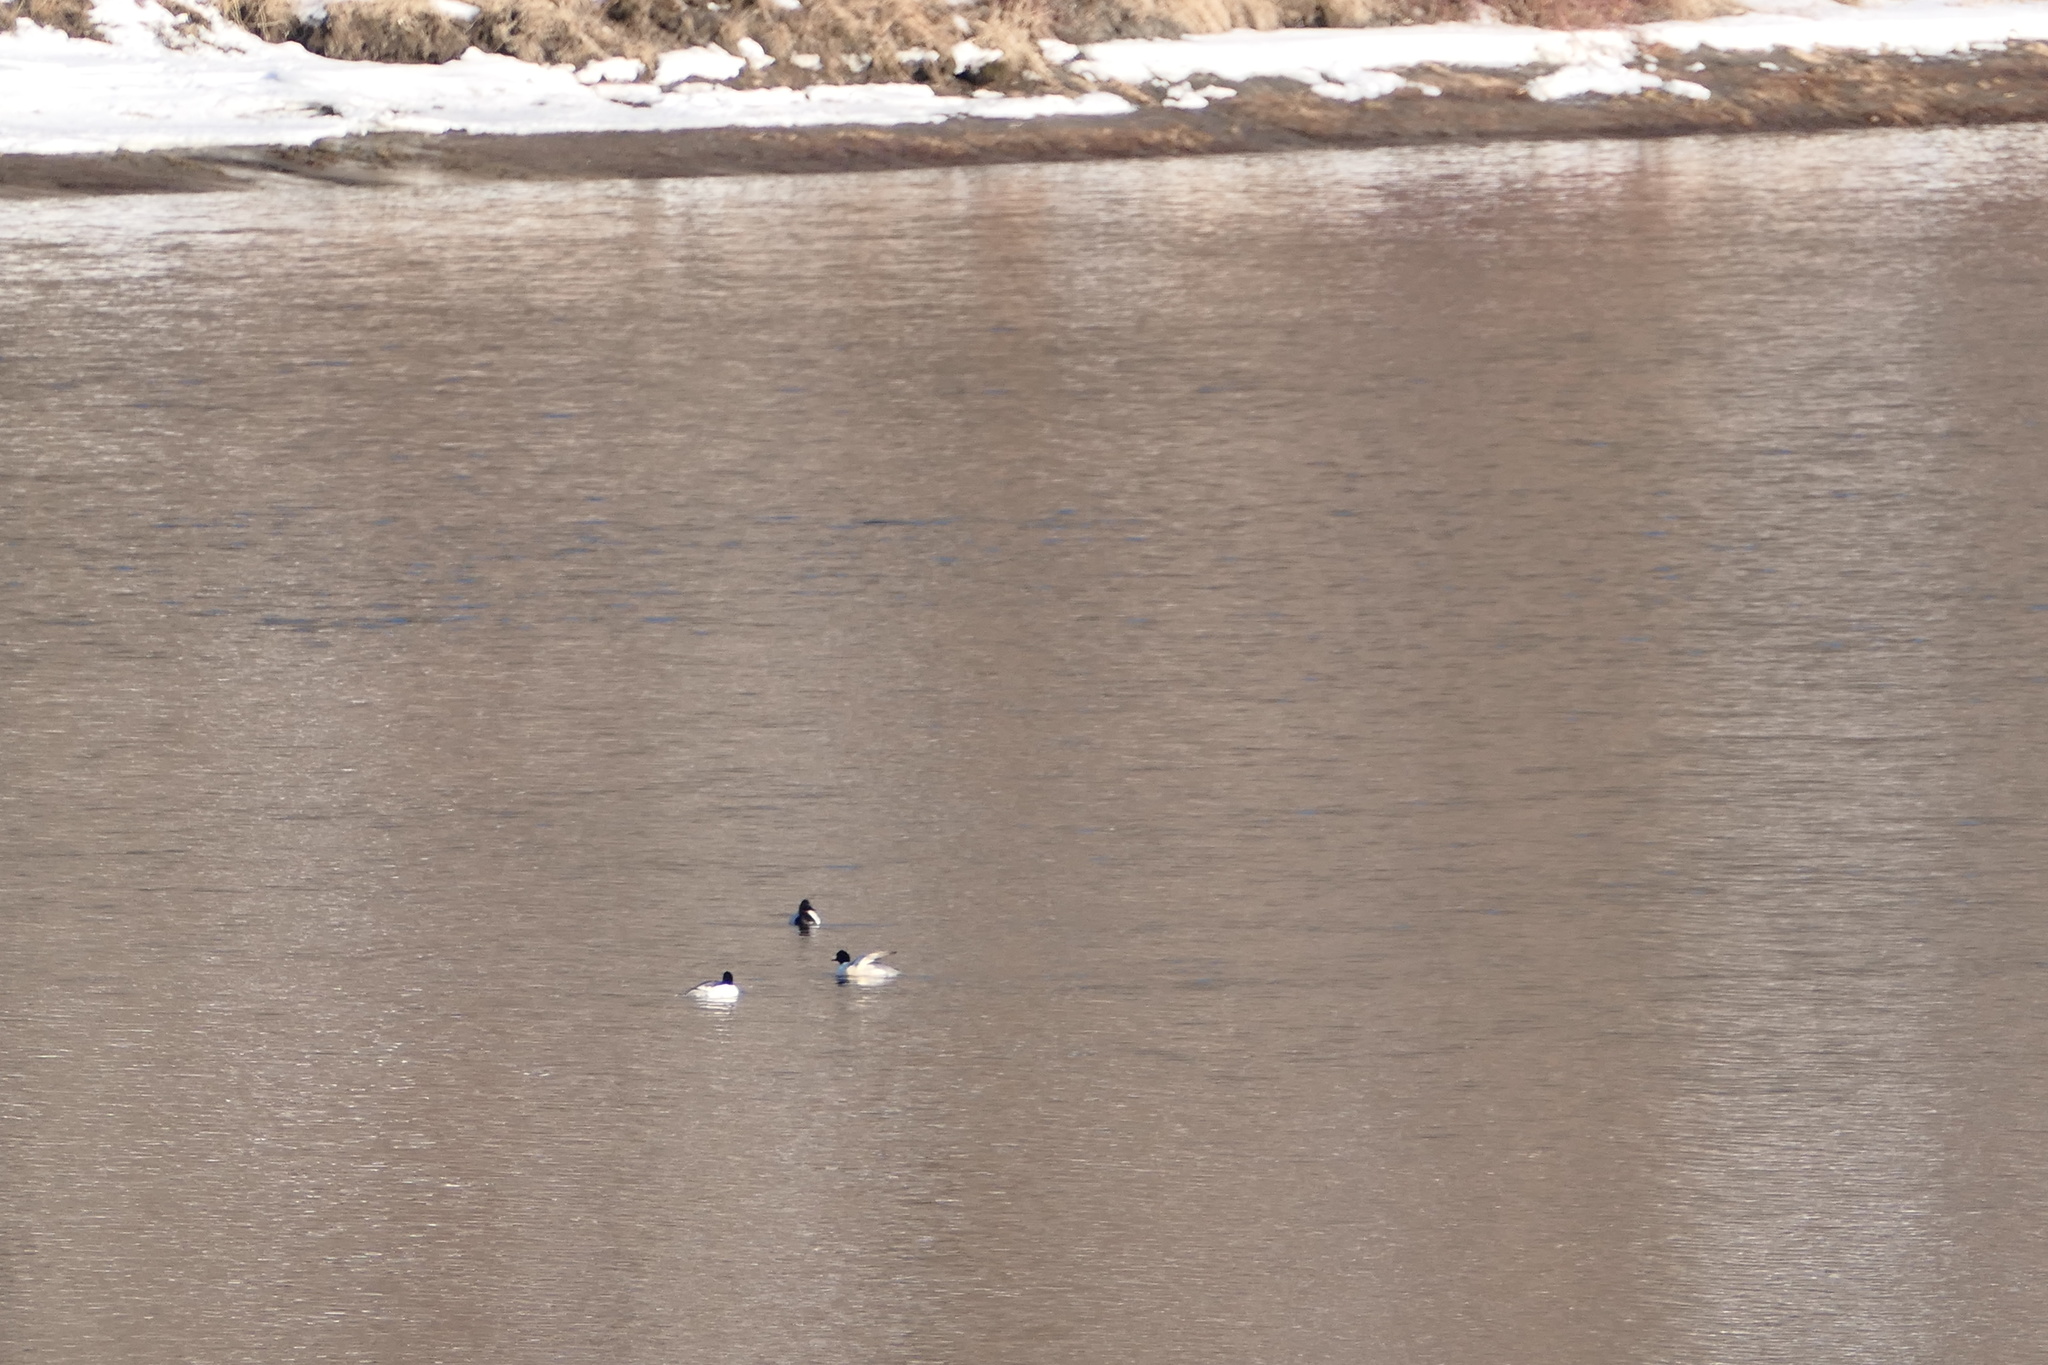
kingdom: Animalia
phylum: Chordata
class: Aves
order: Anseriformes
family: Anatidae
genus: Mergus
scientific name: Mergus merganser
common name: Common merganser
